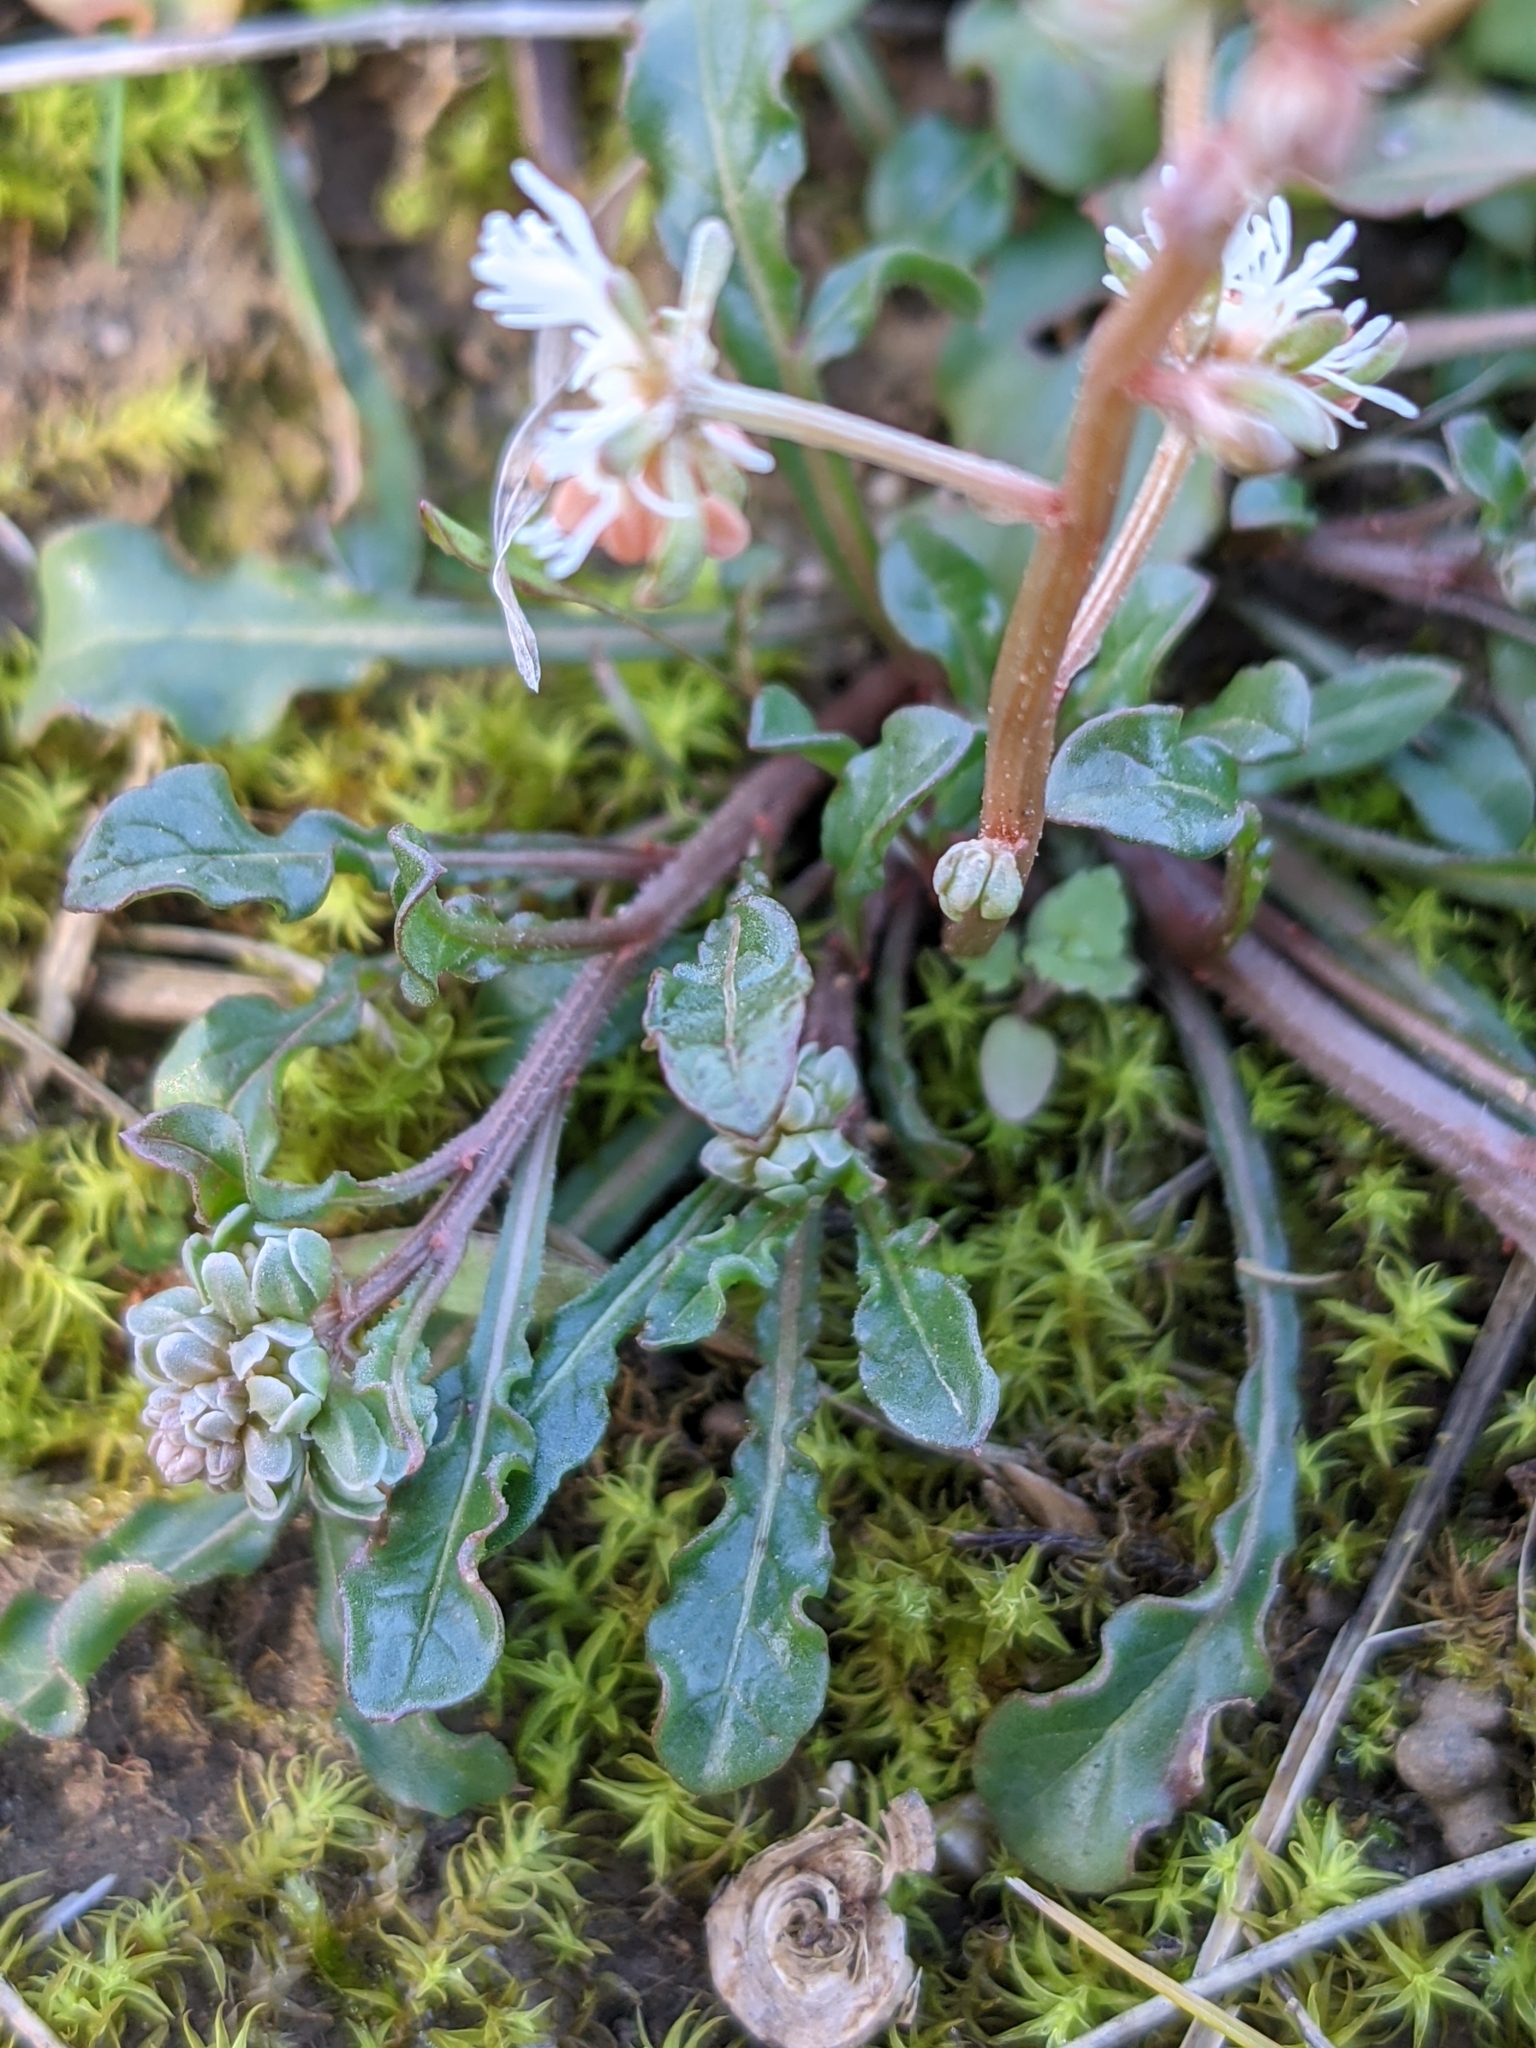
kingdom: Plantae
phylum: Tracheophyta
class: Magnoliopsida
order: Brassicales
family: Resedaceae
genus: Reseda
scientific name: Reseda phyteuma
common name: Corn mignonette
